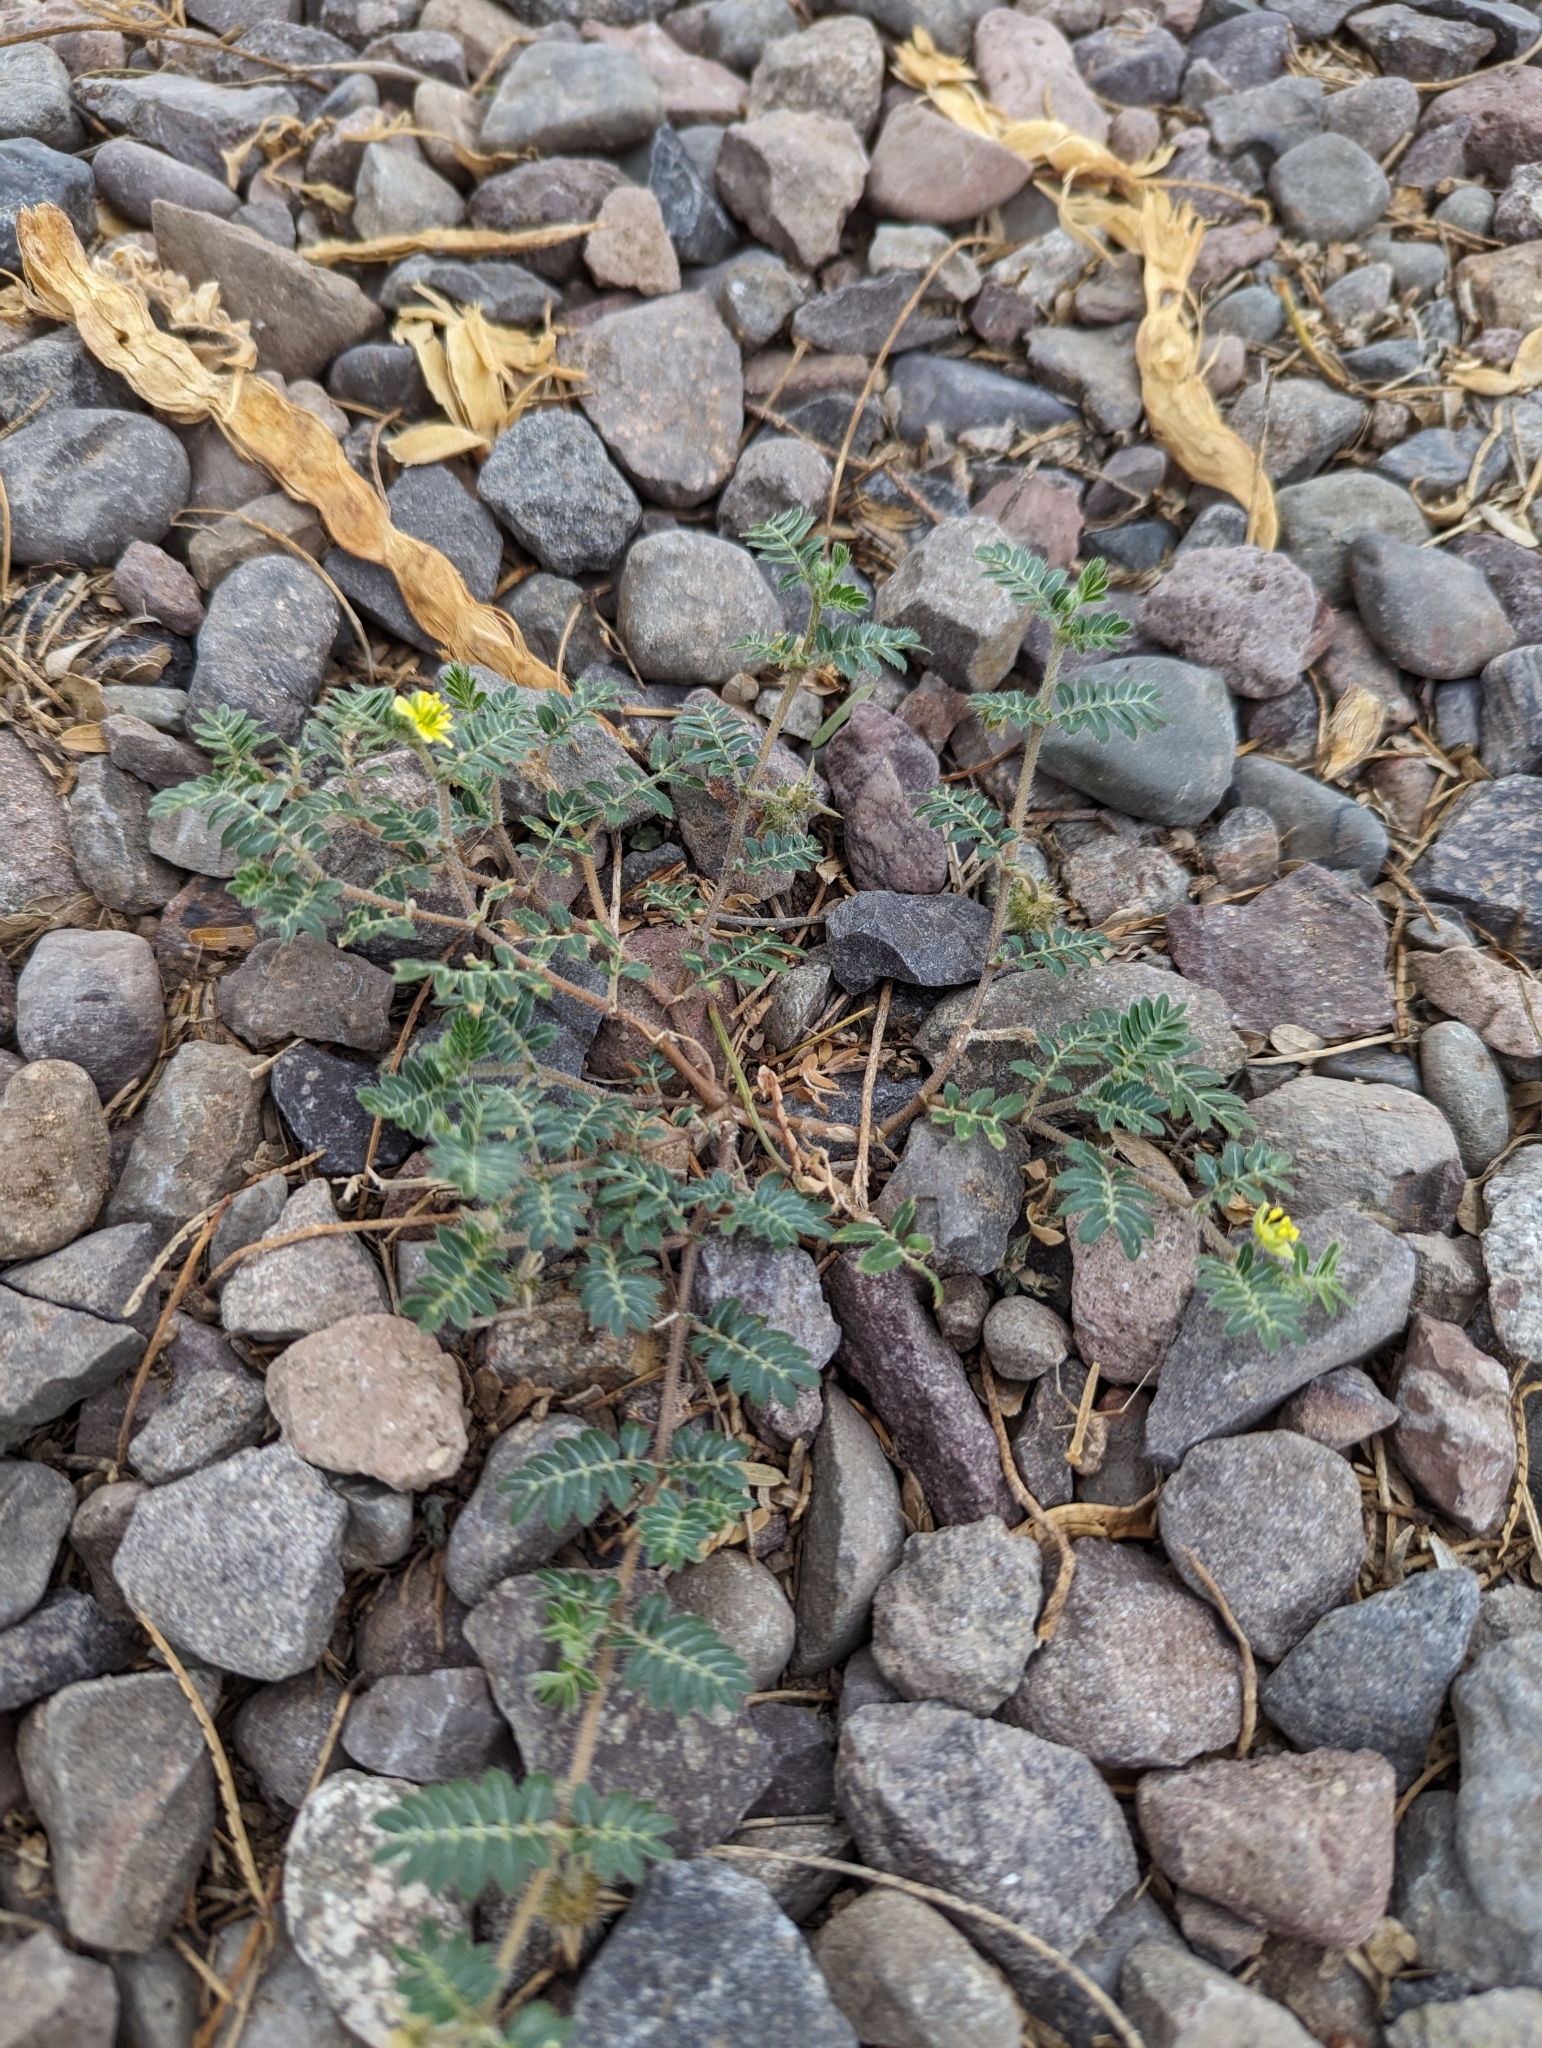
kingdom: Plantae
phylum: Tracheophyta
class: Magnoliopsida
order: Zygophyllales
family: Zygophyllaceae
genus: Tribulus
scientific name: Tribulus terrestris
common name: Puncturevine
